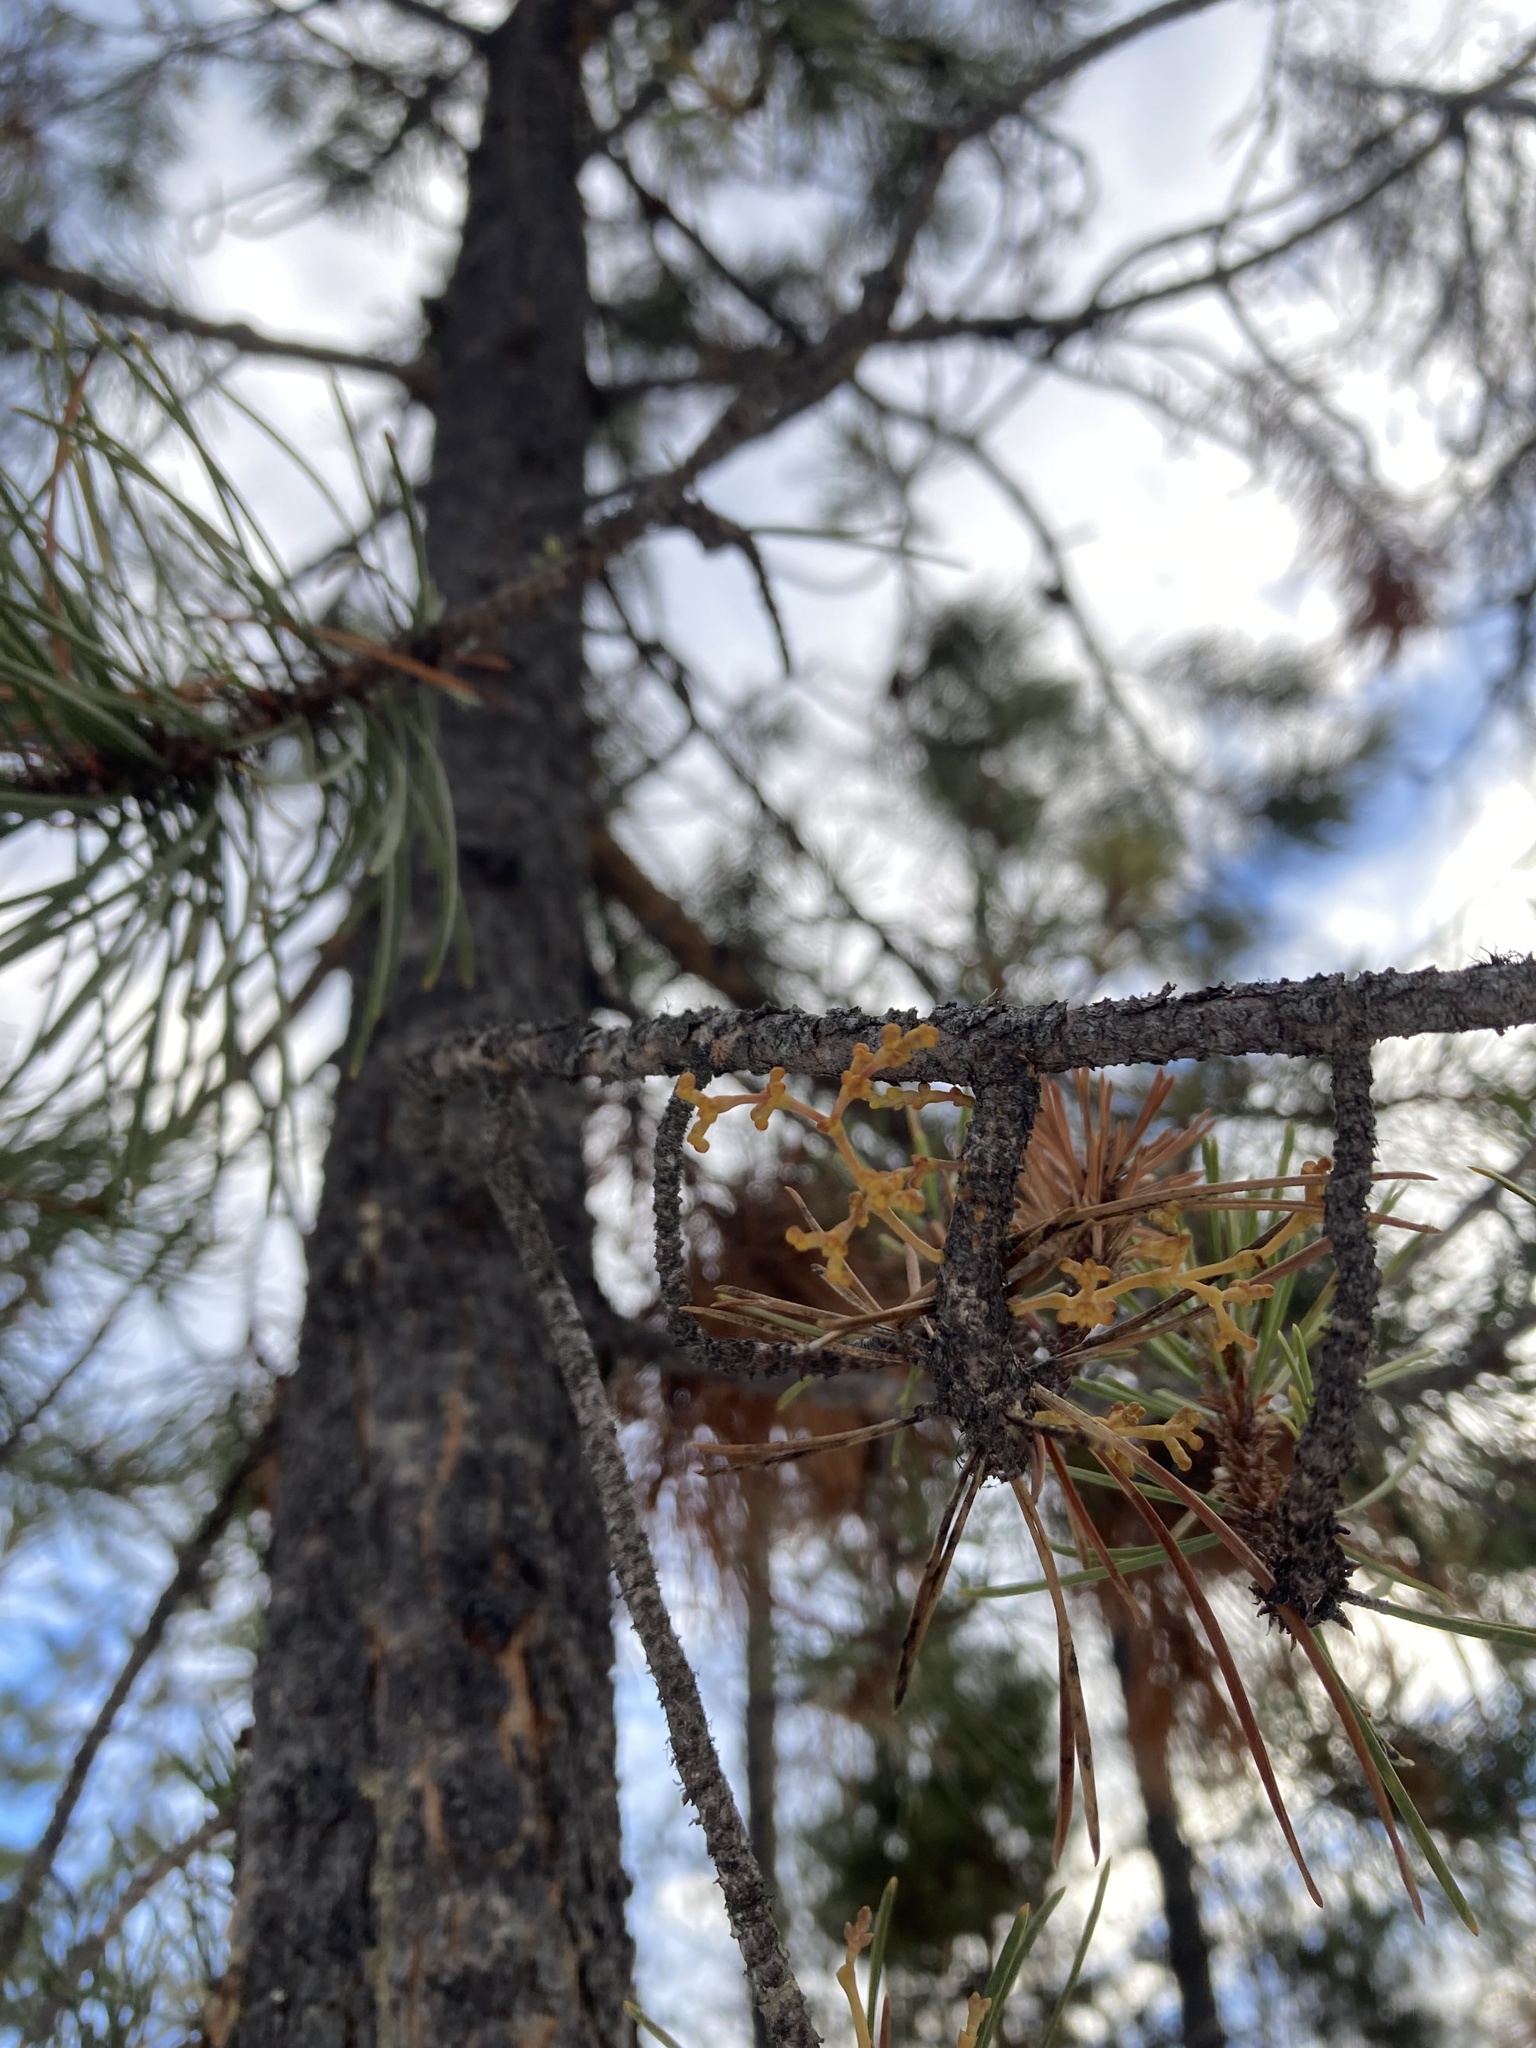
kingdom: Plantae
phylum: Tracheophyta
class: Magnoliopsida
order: Santalales
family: Viscaceae
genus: Arceuthobium
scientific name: Arceuthobium americanum
